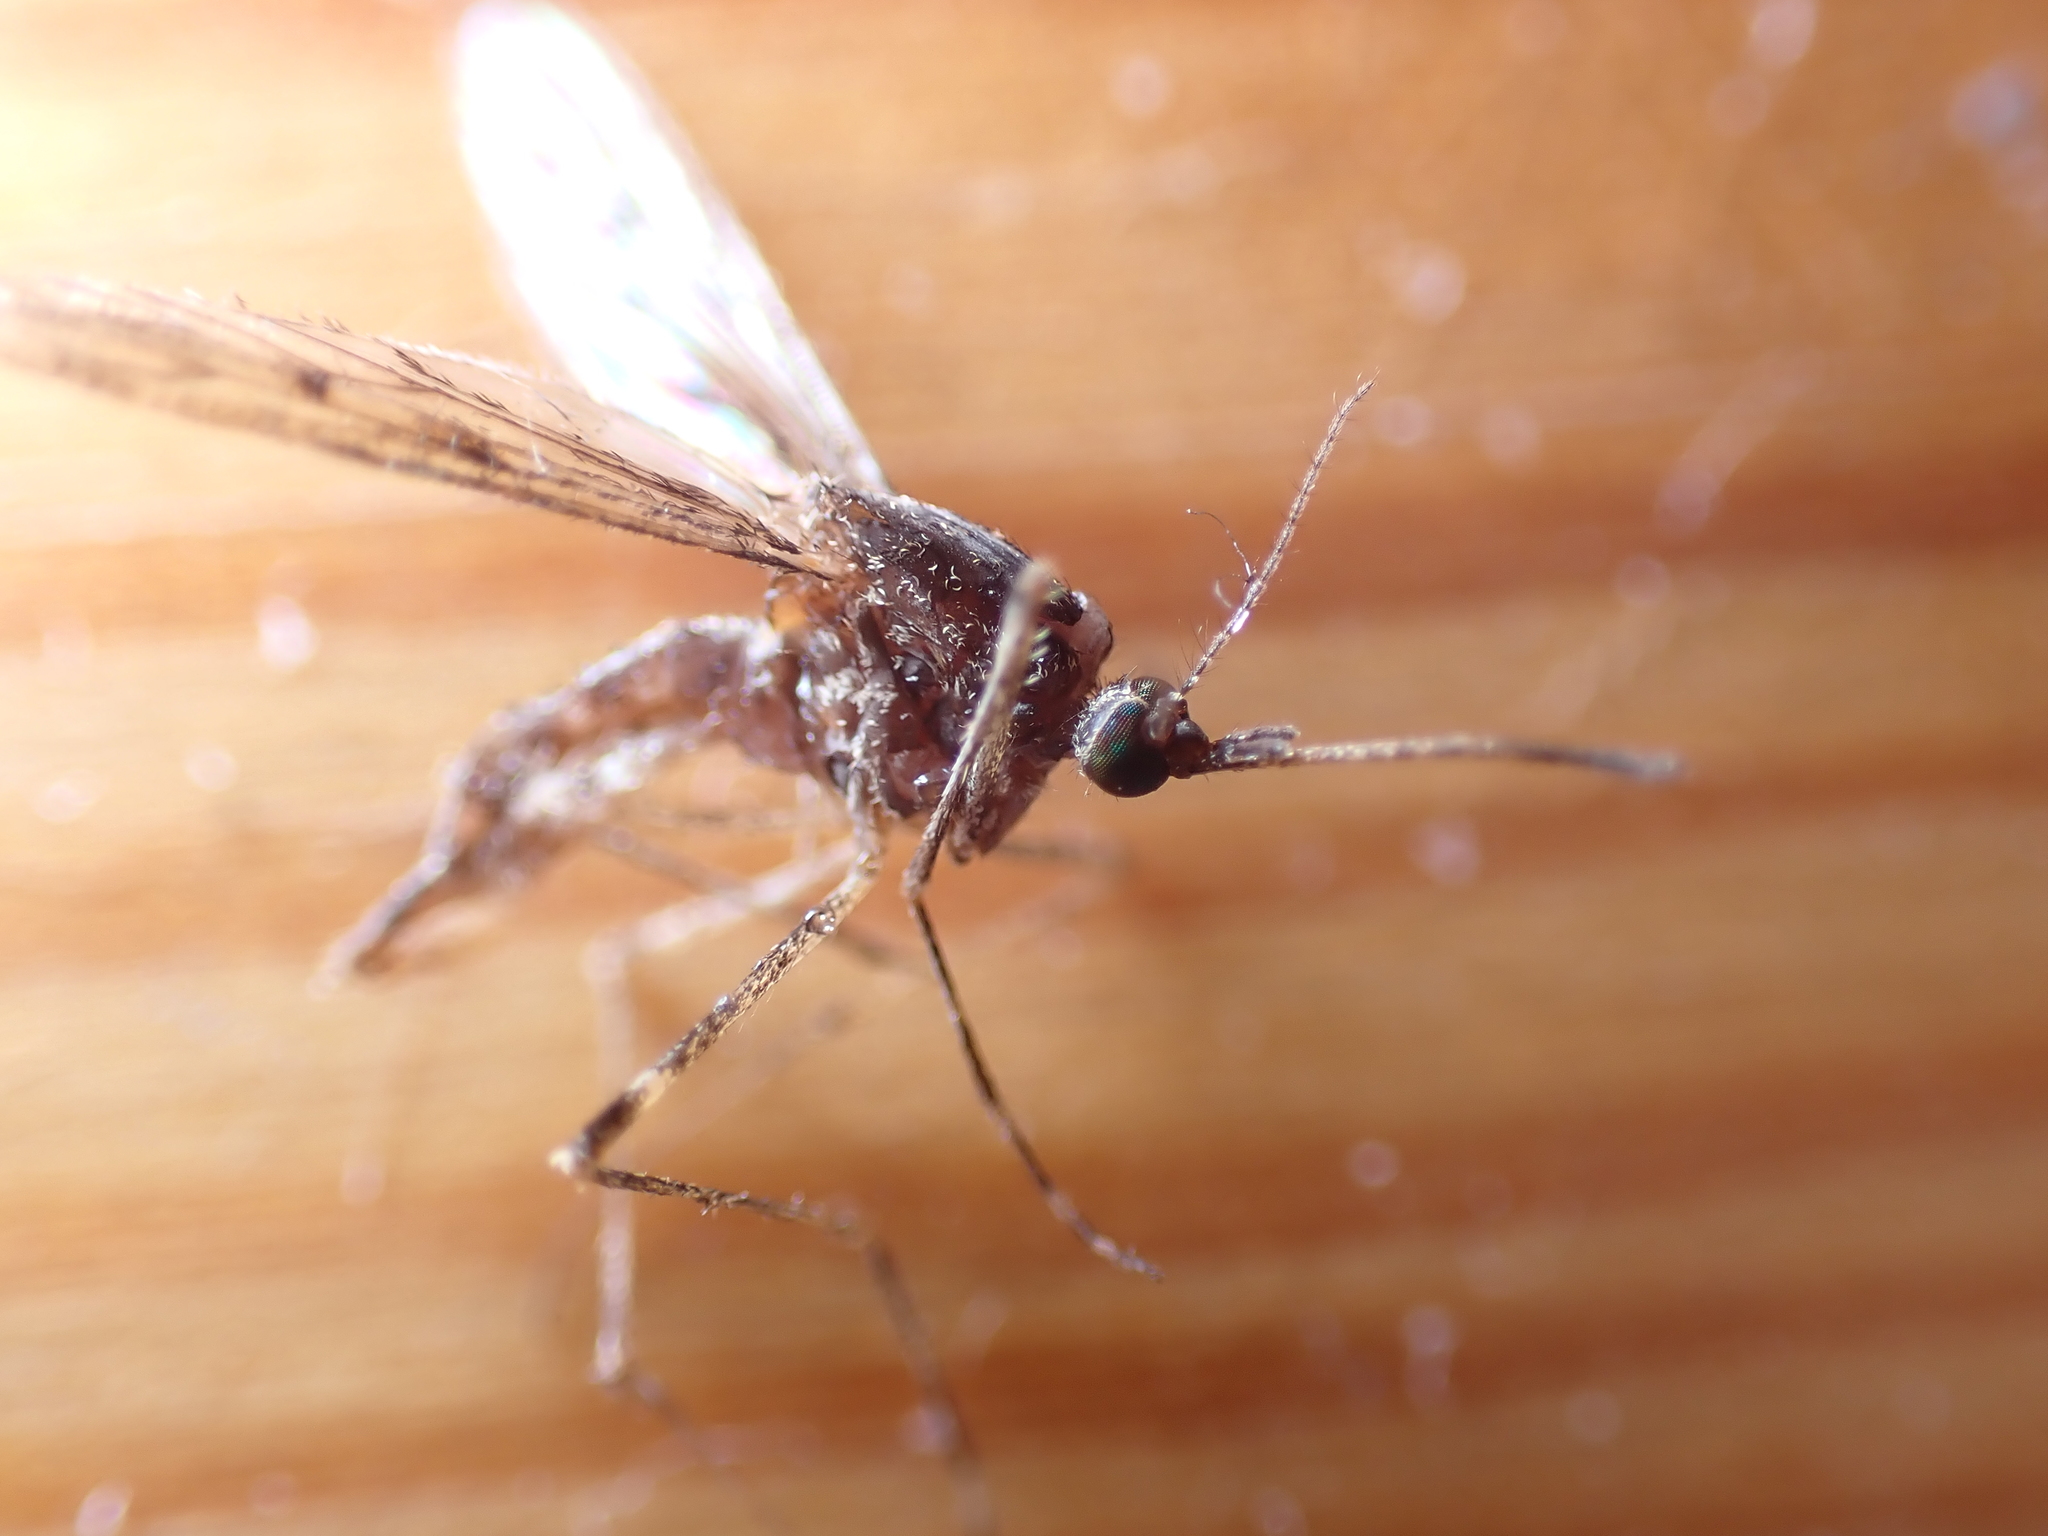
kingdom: Animalia
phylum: Arthropoda
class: Insecta
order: Diptera
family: Culicidae
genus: Culiseta
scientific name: Culiseta annulata
